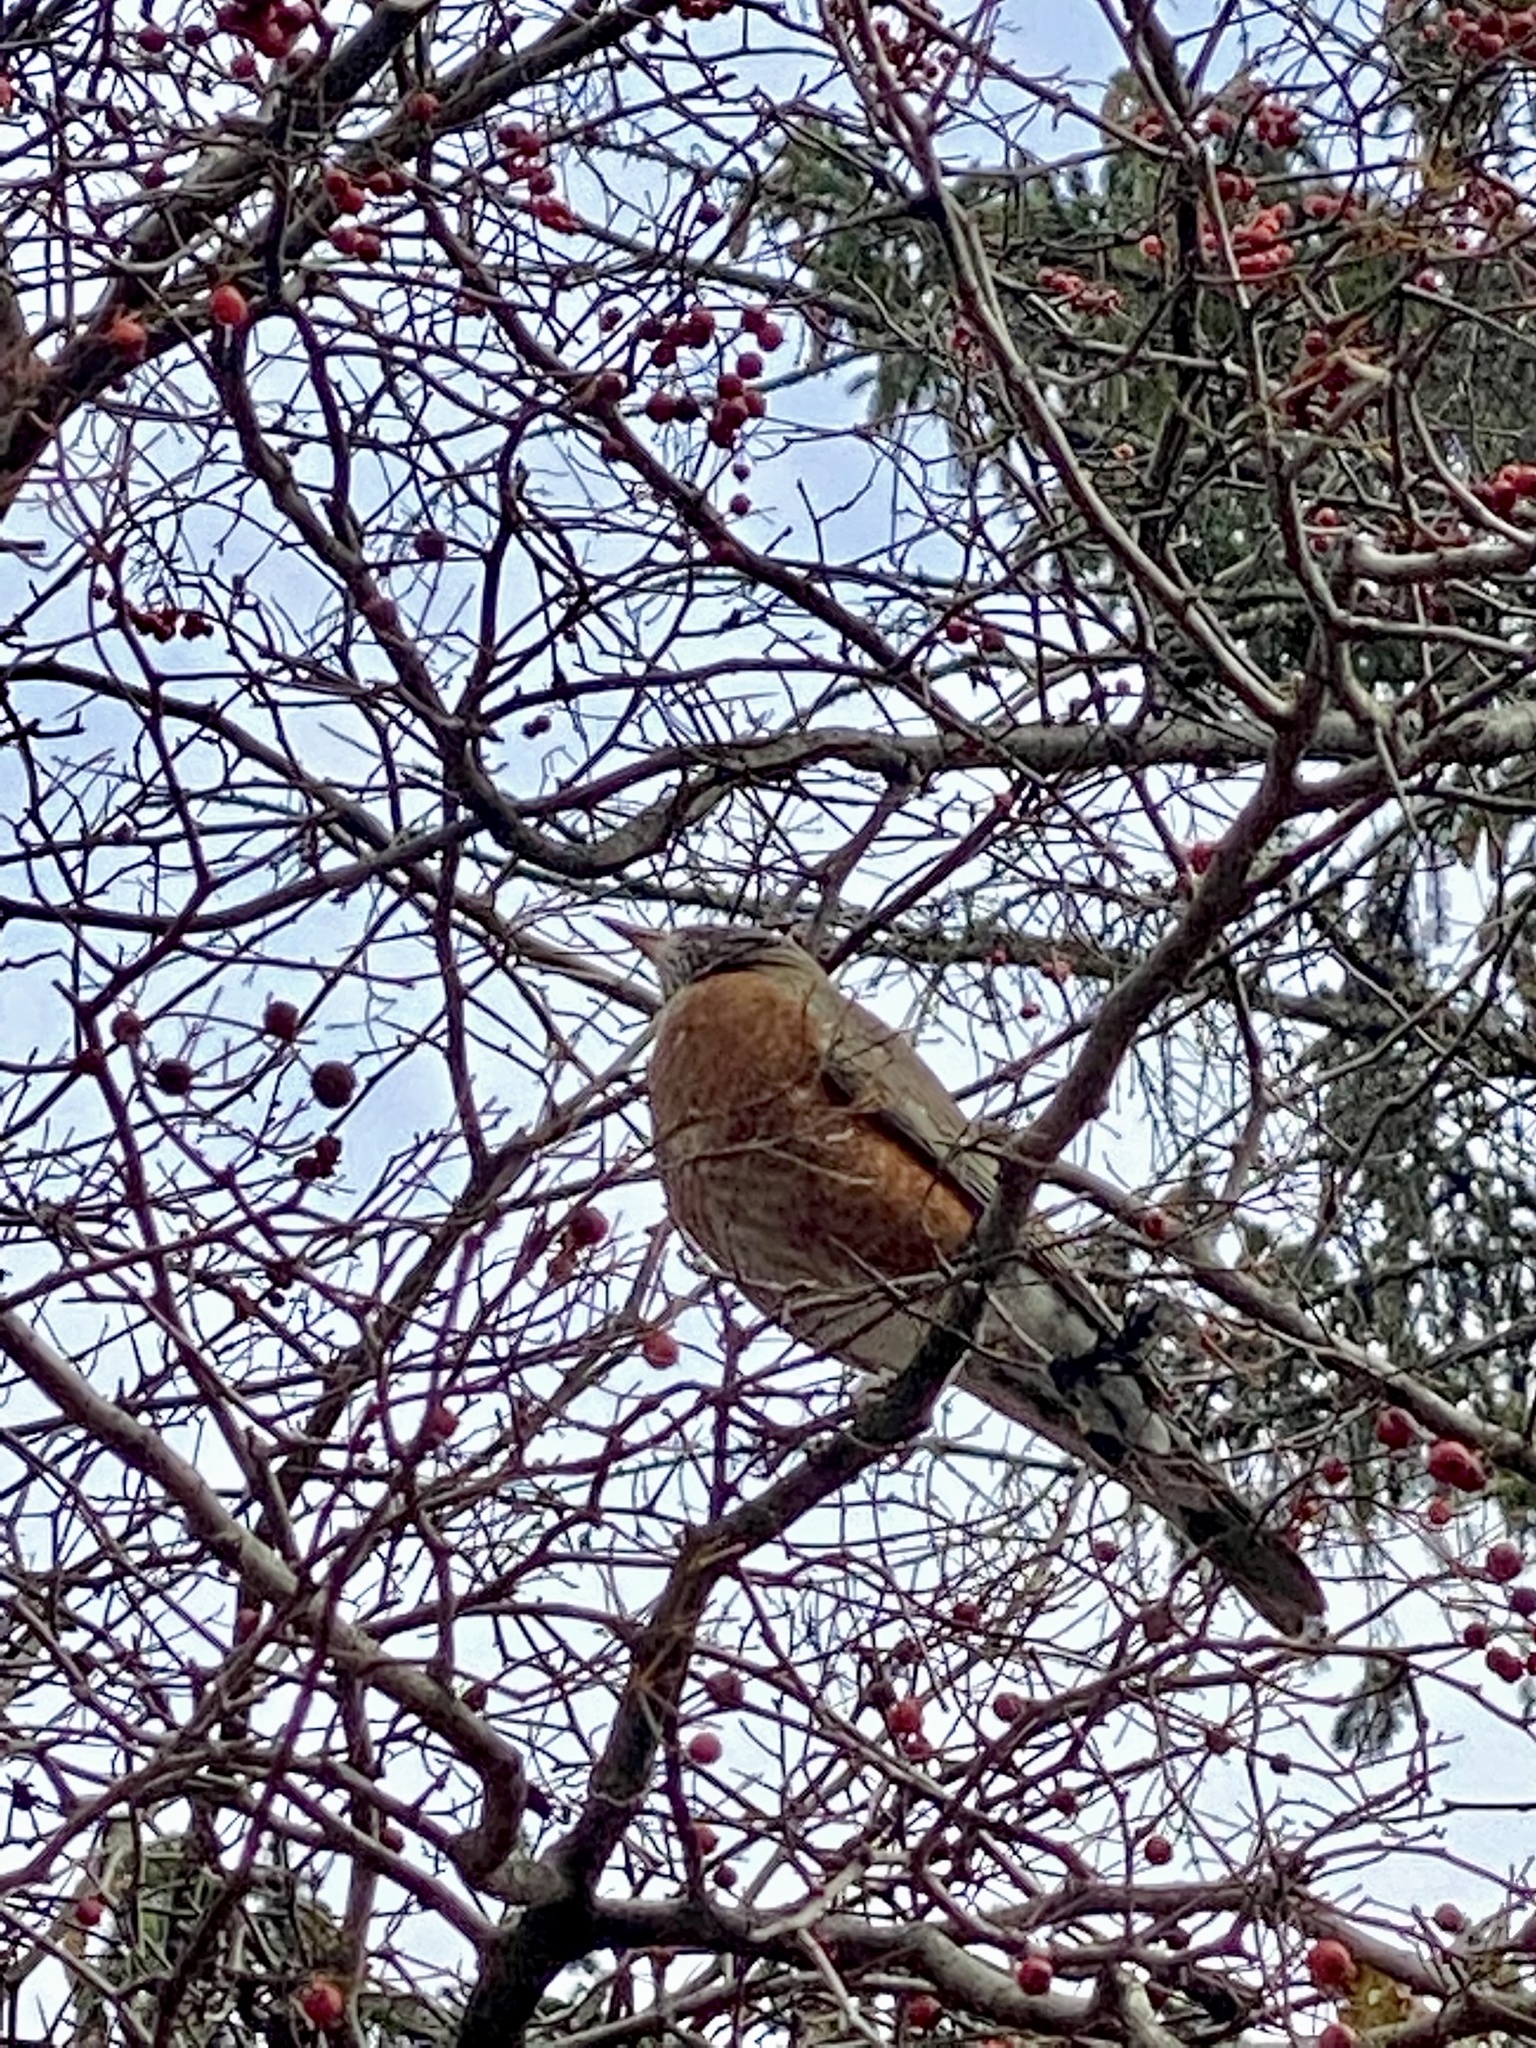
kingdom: Animalia
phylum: Chordata
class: Aves
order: Passeriformes
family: Turdidae
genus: Turdus
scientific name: Turdus migratorius
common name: American robin
